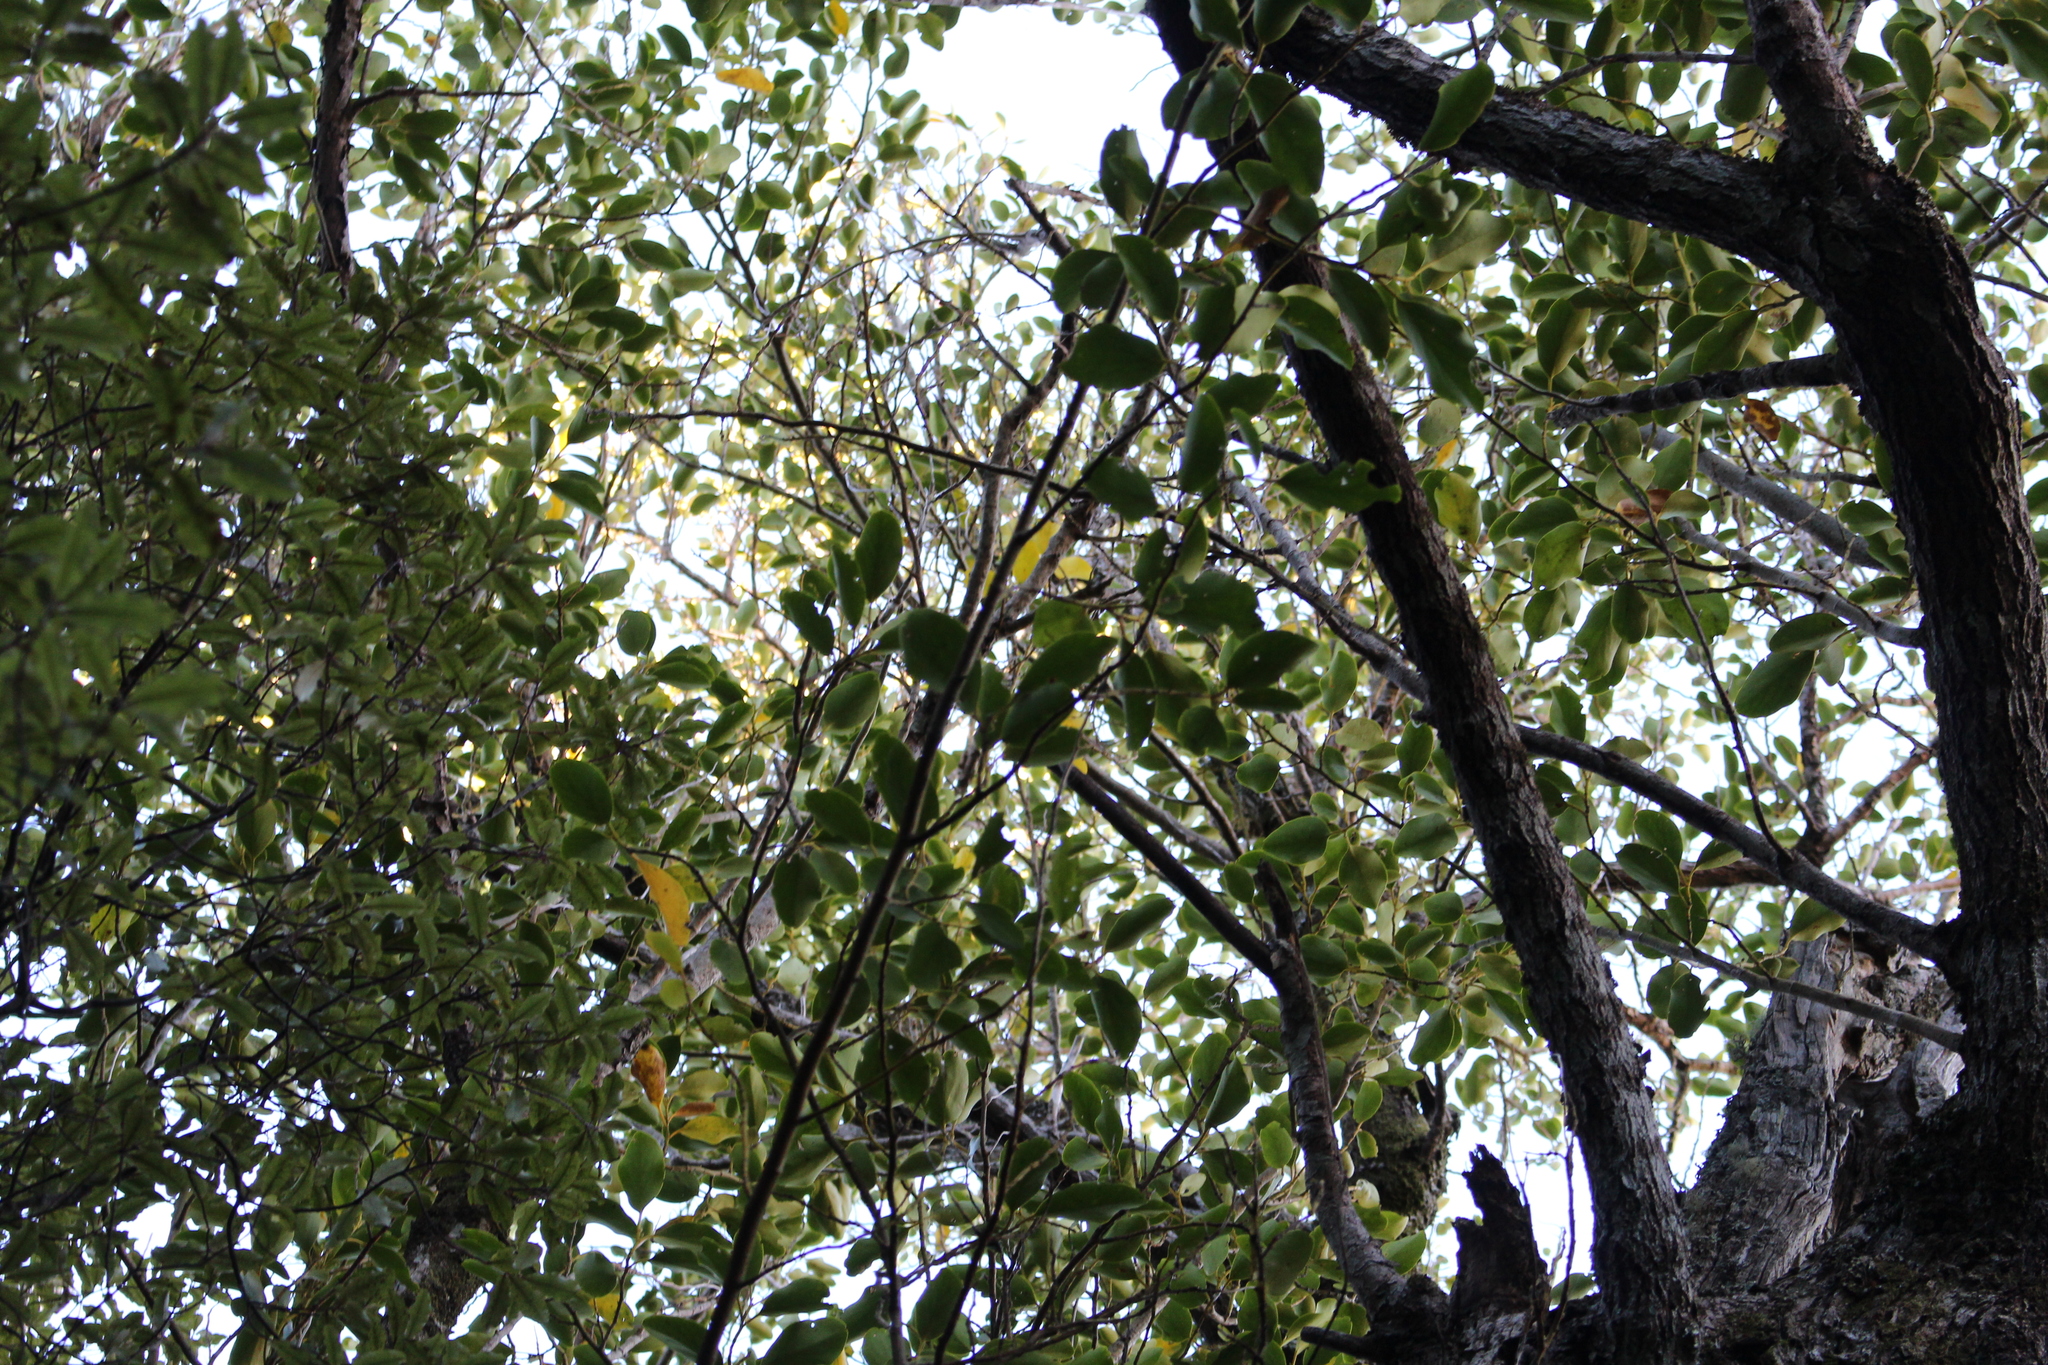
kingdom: Plantae
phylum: Tracheophyta
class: Magnoliopsida
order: Apiales
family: Griseliniaceae
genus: Griselinia
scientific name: Griselinia littoralis
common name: New zealand broadleaf
